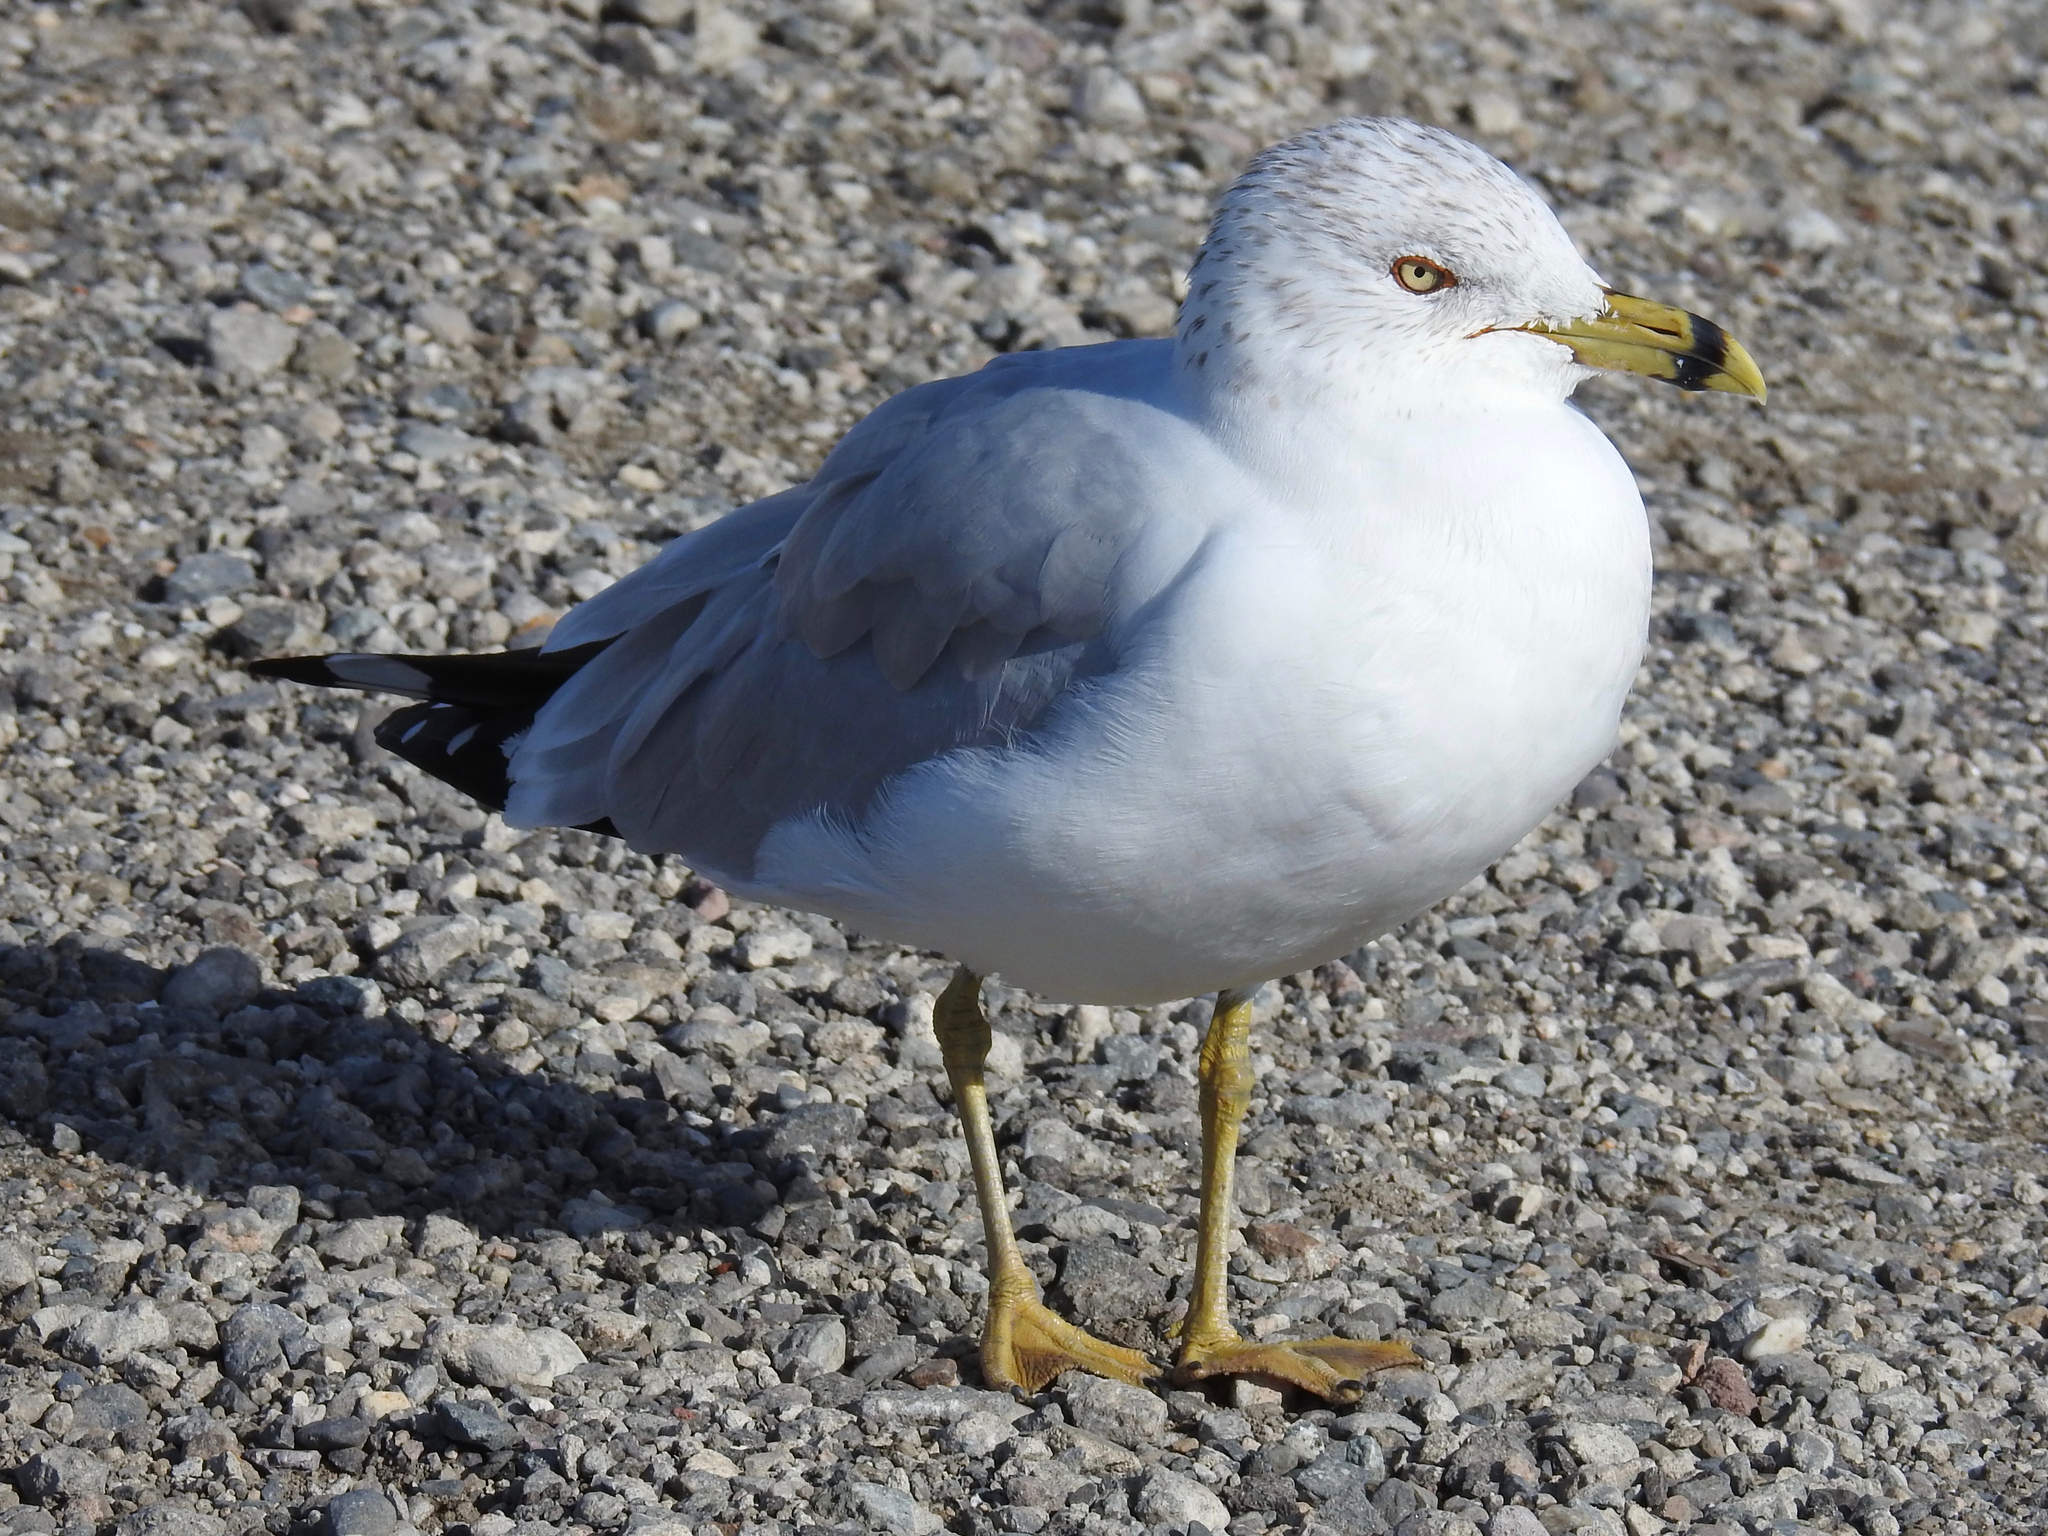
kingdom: Animalia
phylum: Chordata
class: Aves
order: Charadriiformes
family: Laridae
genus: Larus
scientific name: Larus delawarensis
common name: Ring-billed gull
